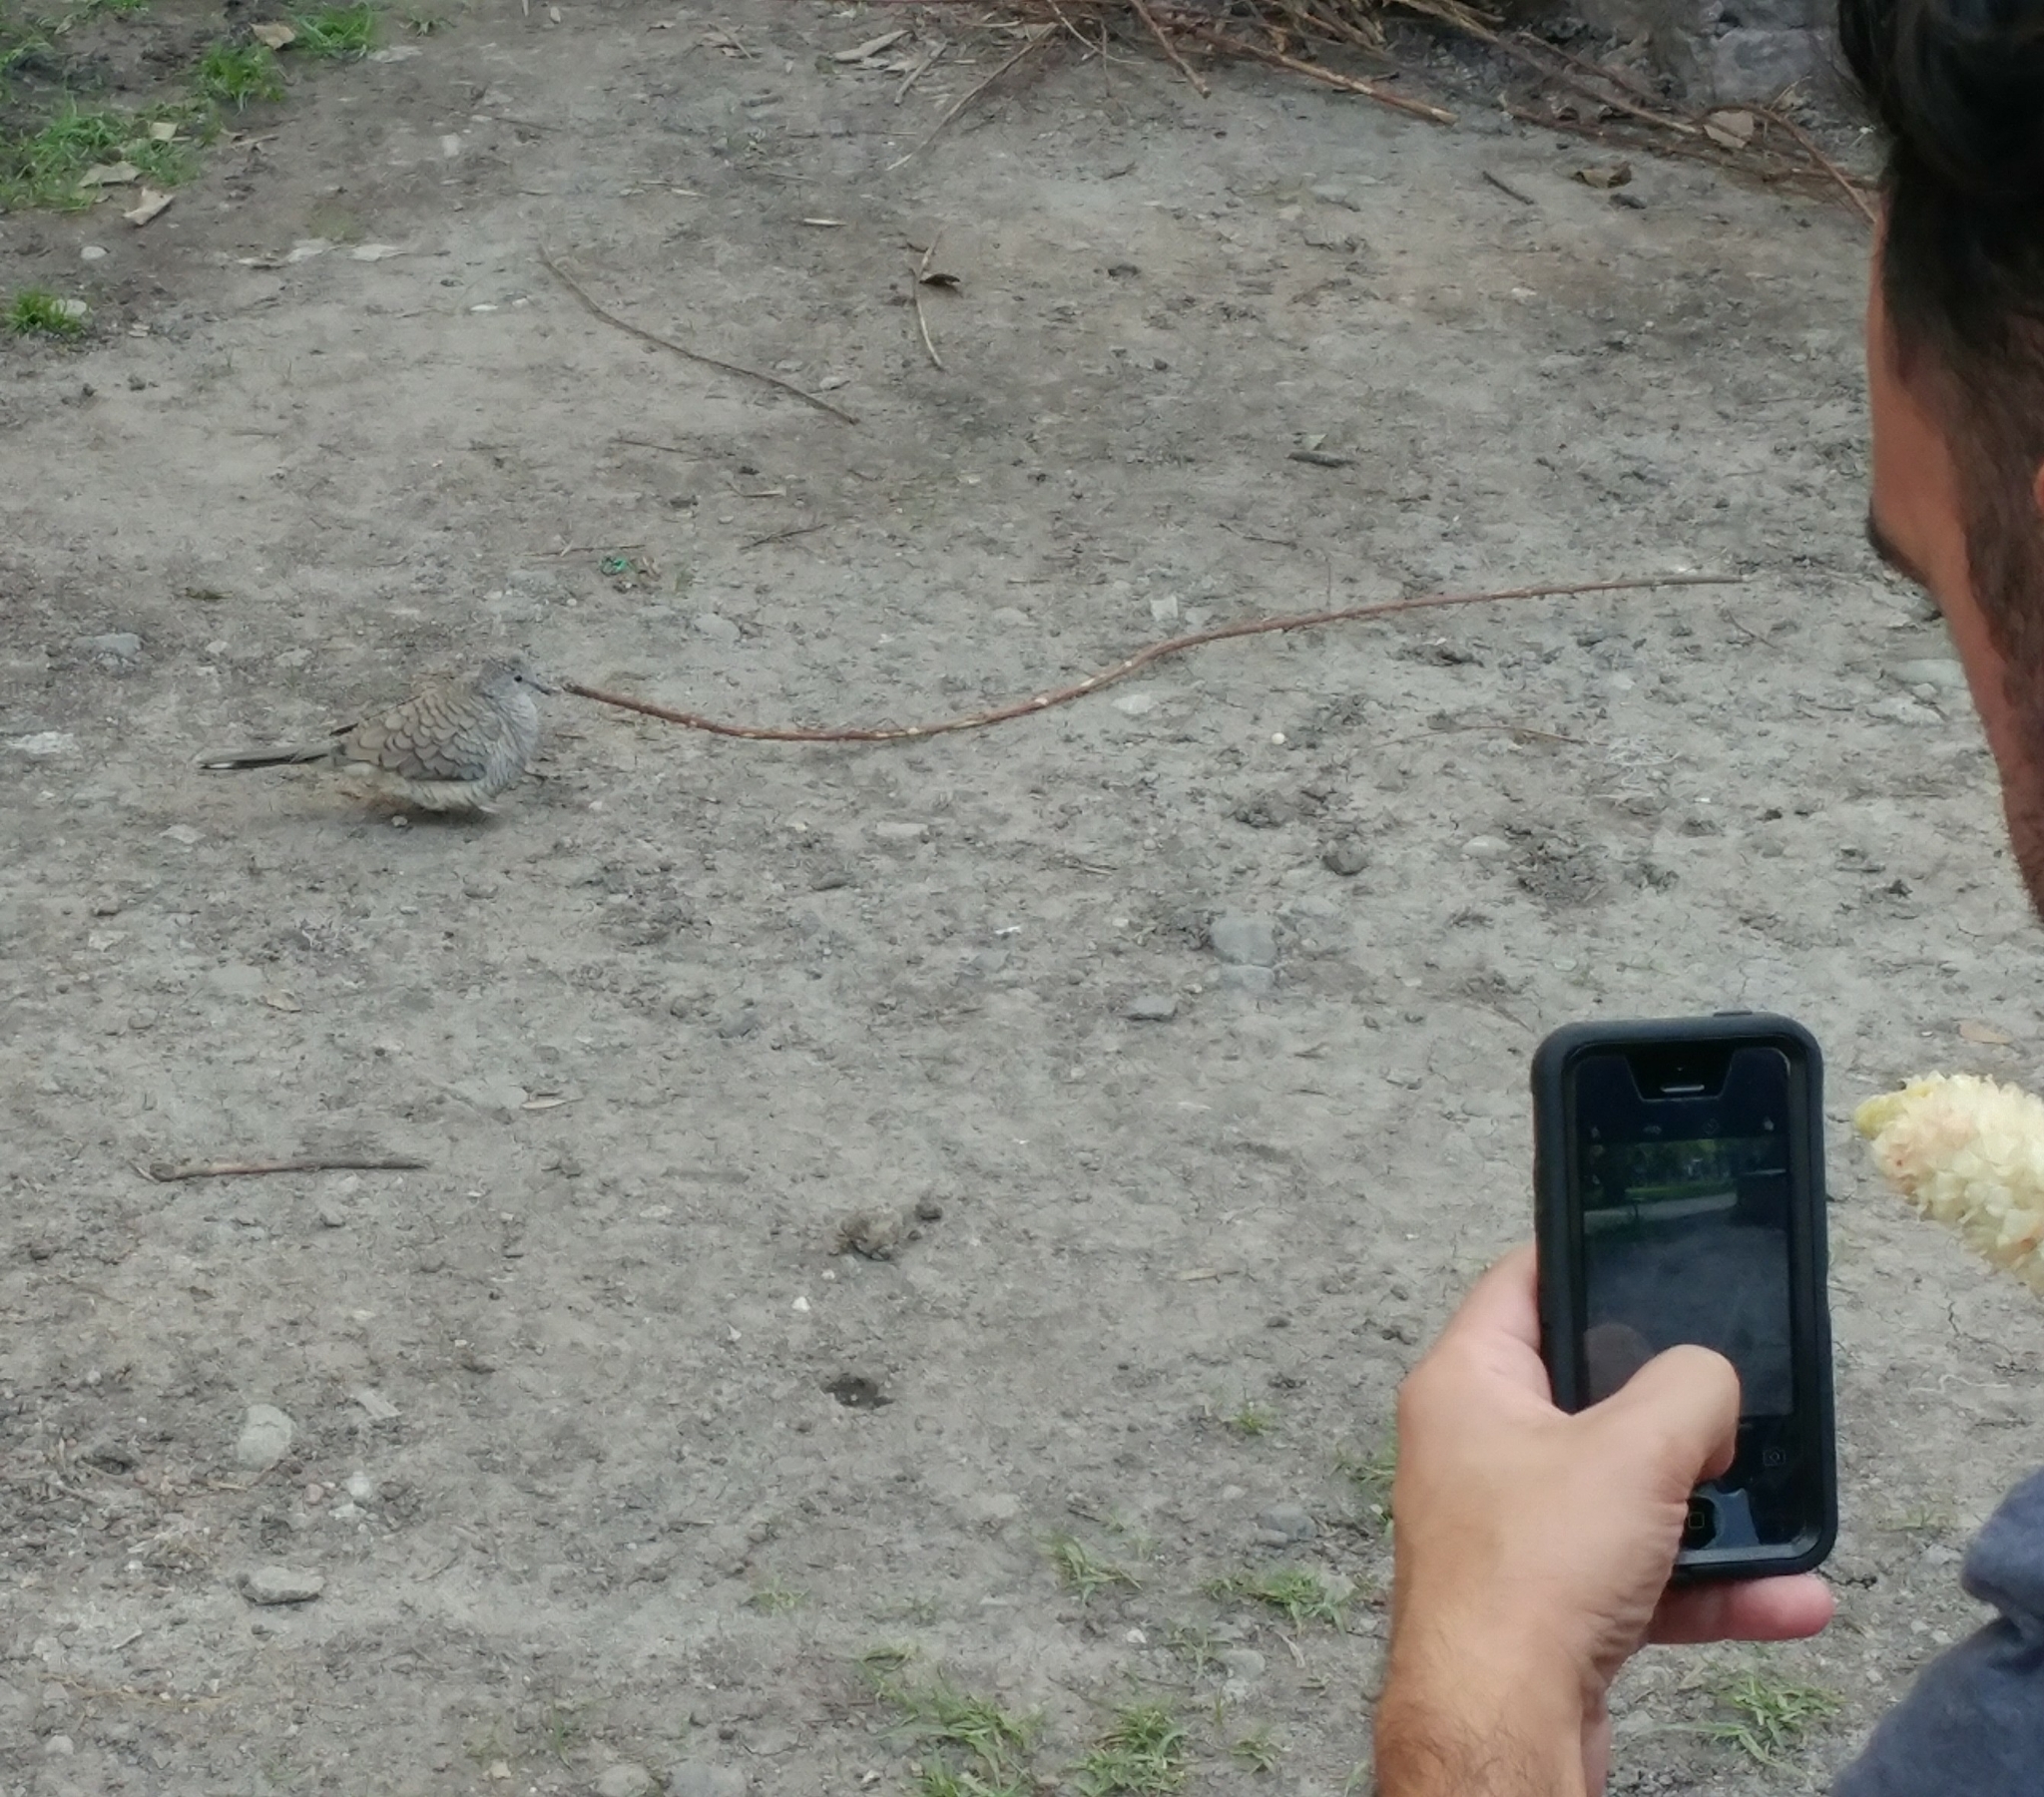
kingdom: Animalia
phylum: Chordata
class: Aves
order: Columbiformes
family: Columbidae
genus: Columbina
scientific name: Columbina inca
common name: Inca dove
